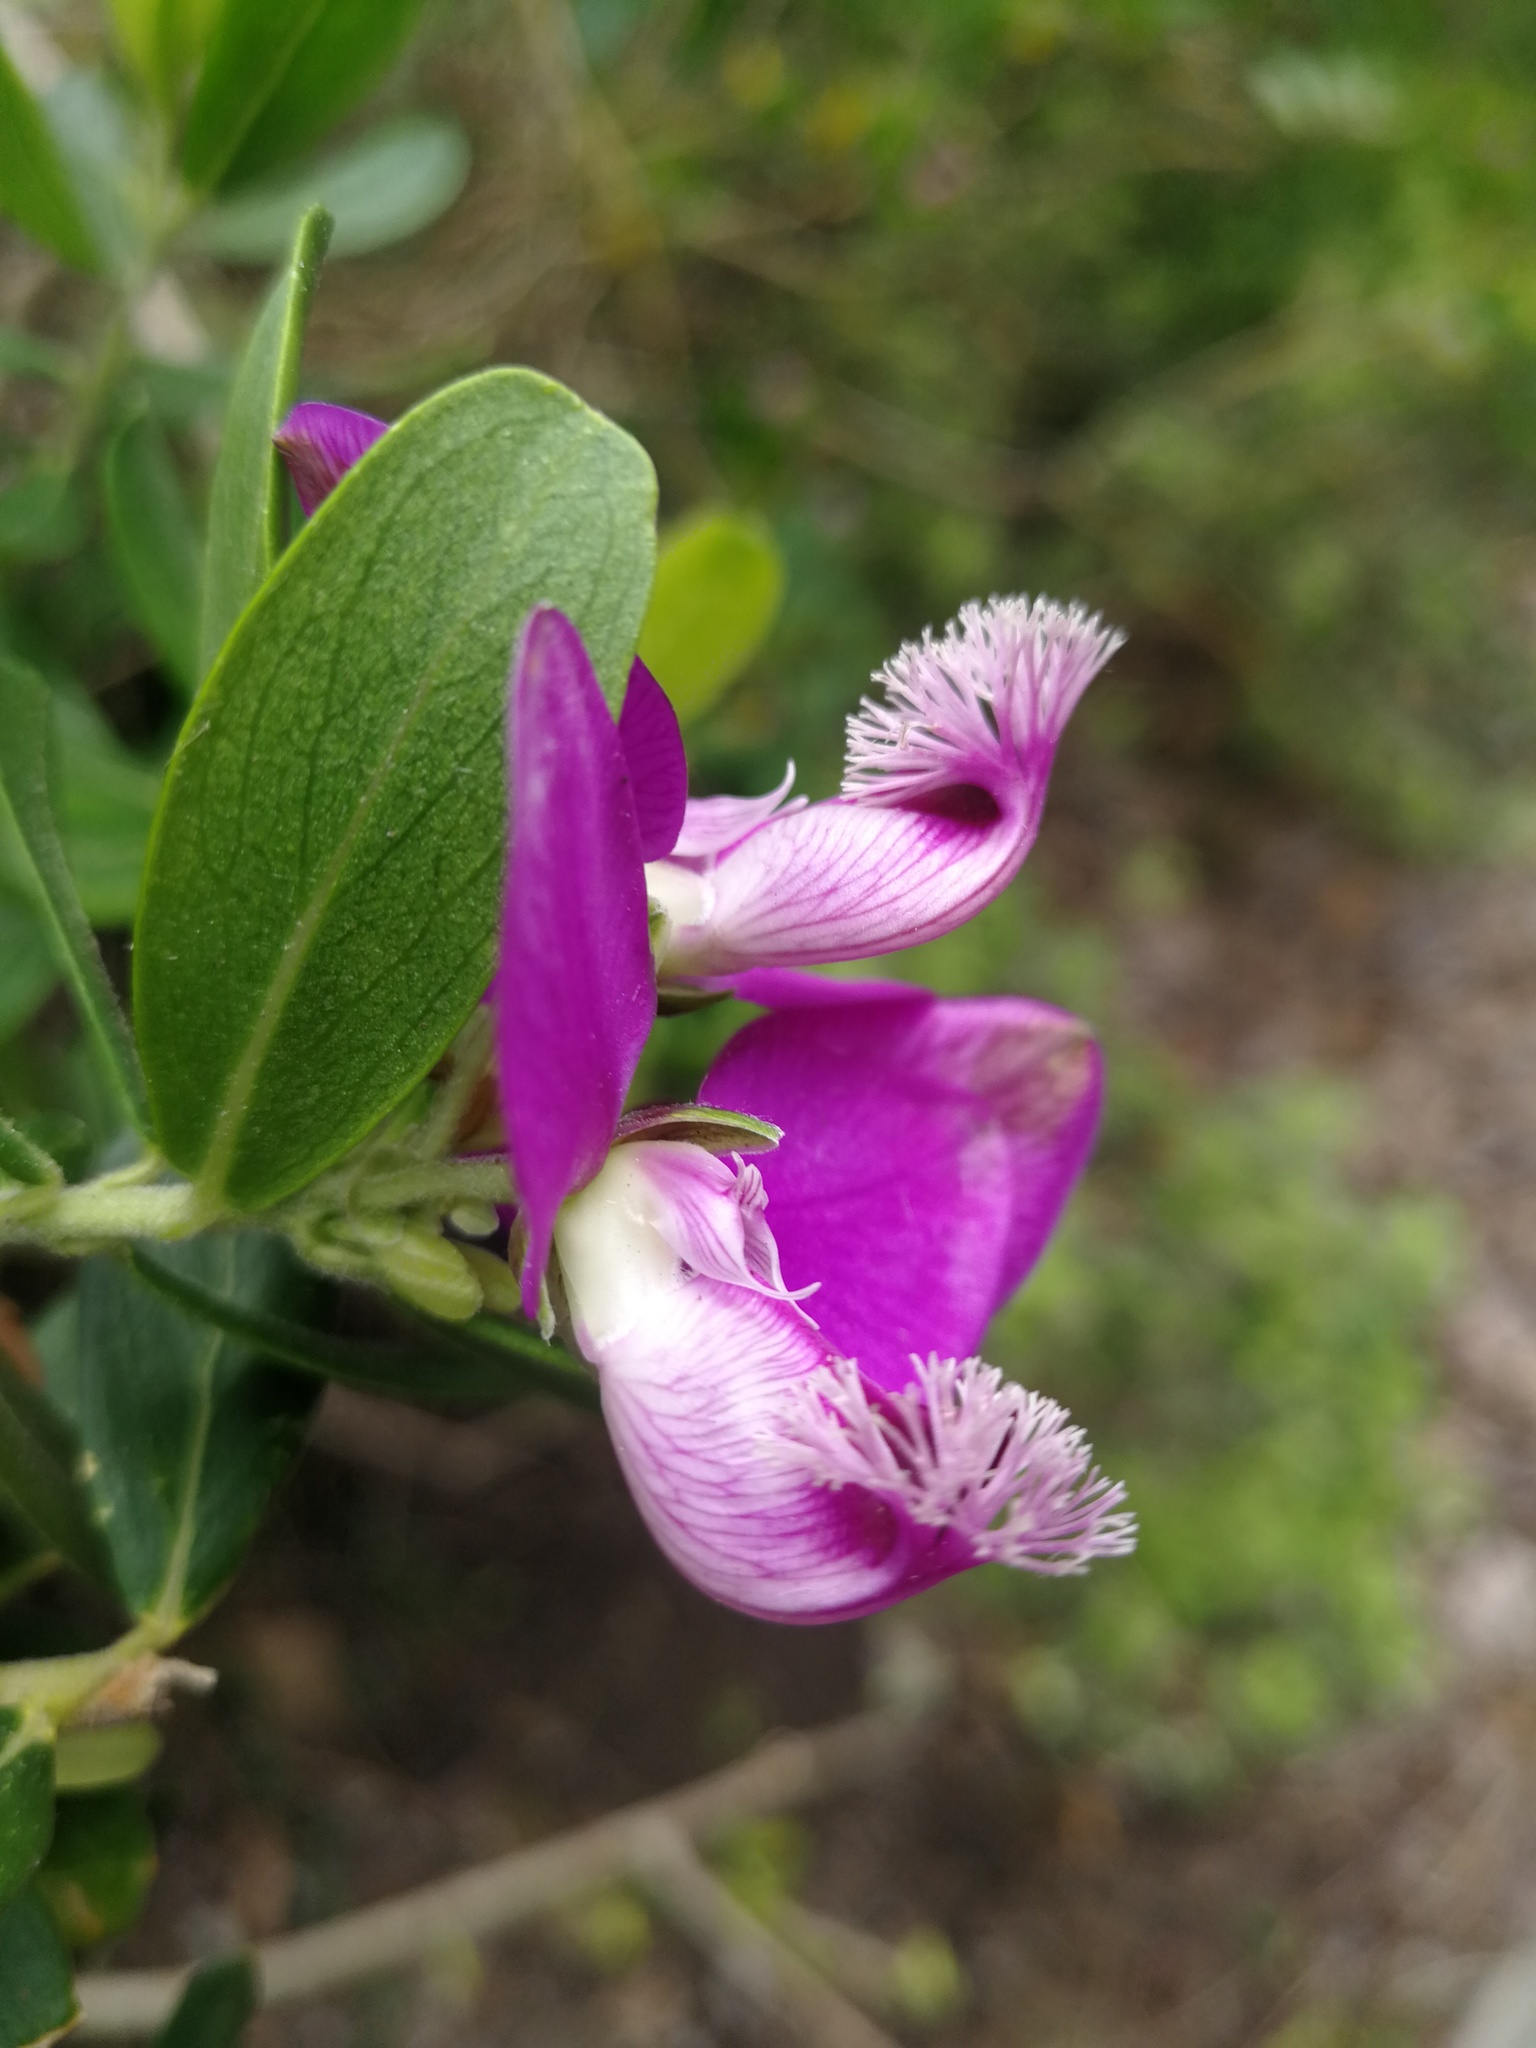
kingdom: Plantae
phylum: Tracheophyta
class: Magnoliopsida
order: Fabales
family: Polygalaceae
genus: Polygala
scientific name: Polygala myrtifolia
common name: Myrtle-leaf milkwort
